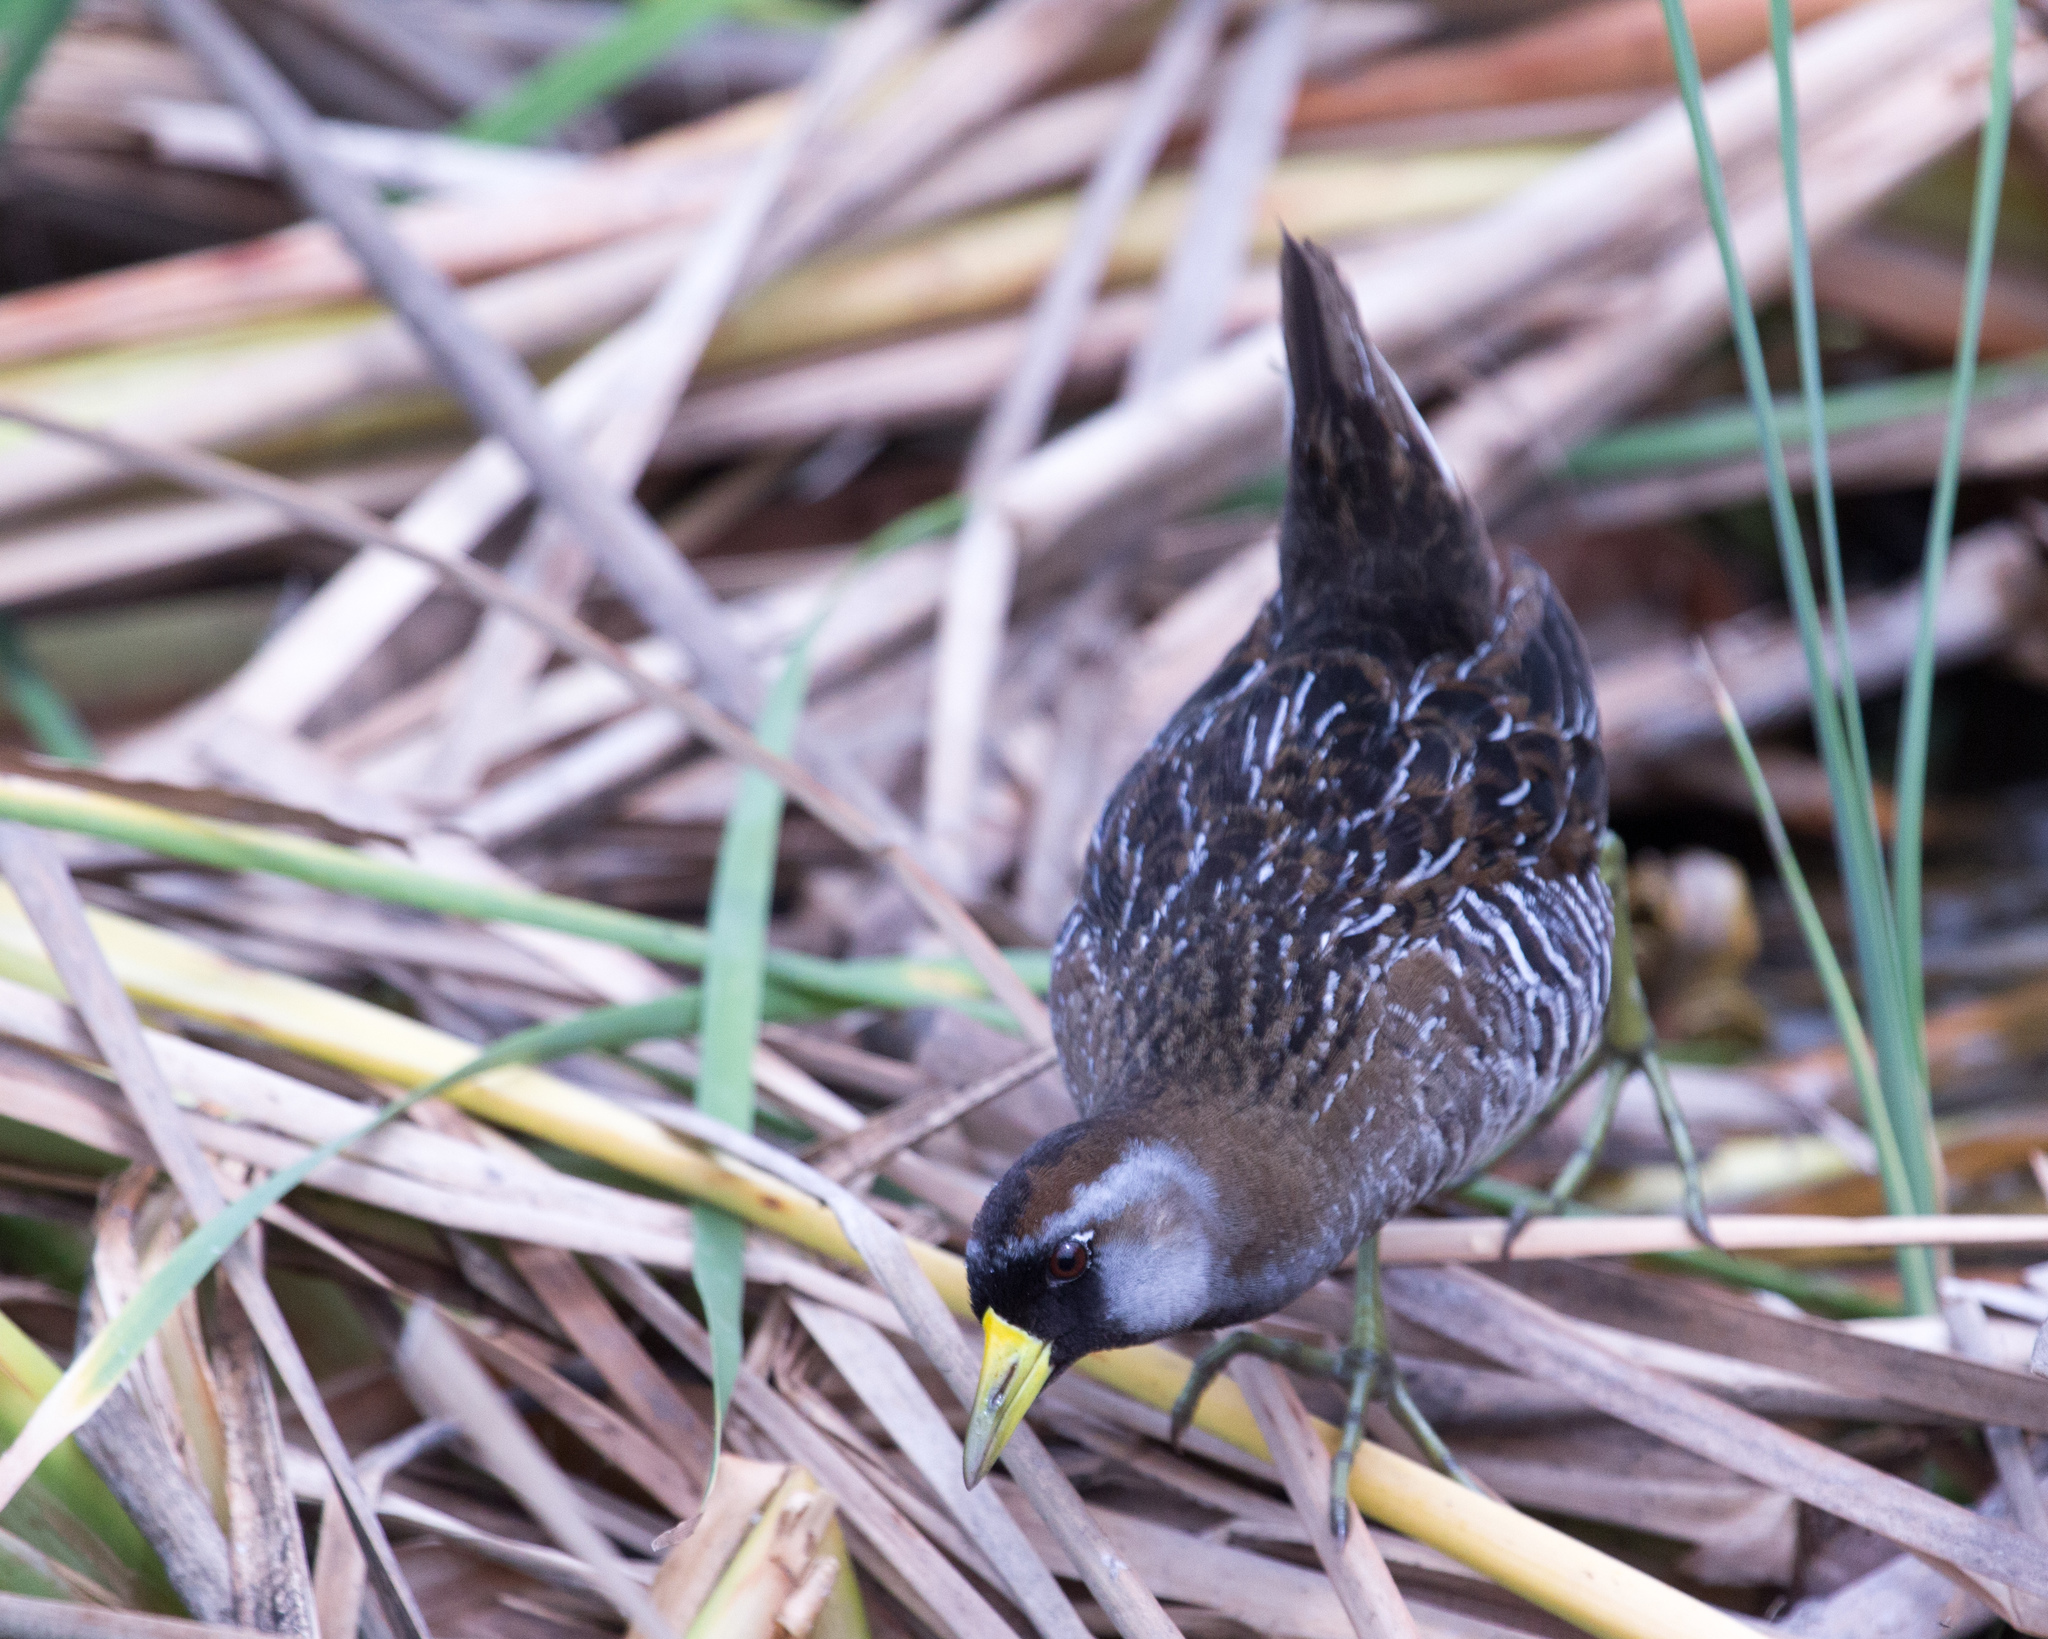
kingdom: Animalia
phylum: Chordata
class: Aves
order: Gruiformes
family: Rallidae
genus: Porzana
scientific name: Porzana carolina
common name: Sora
